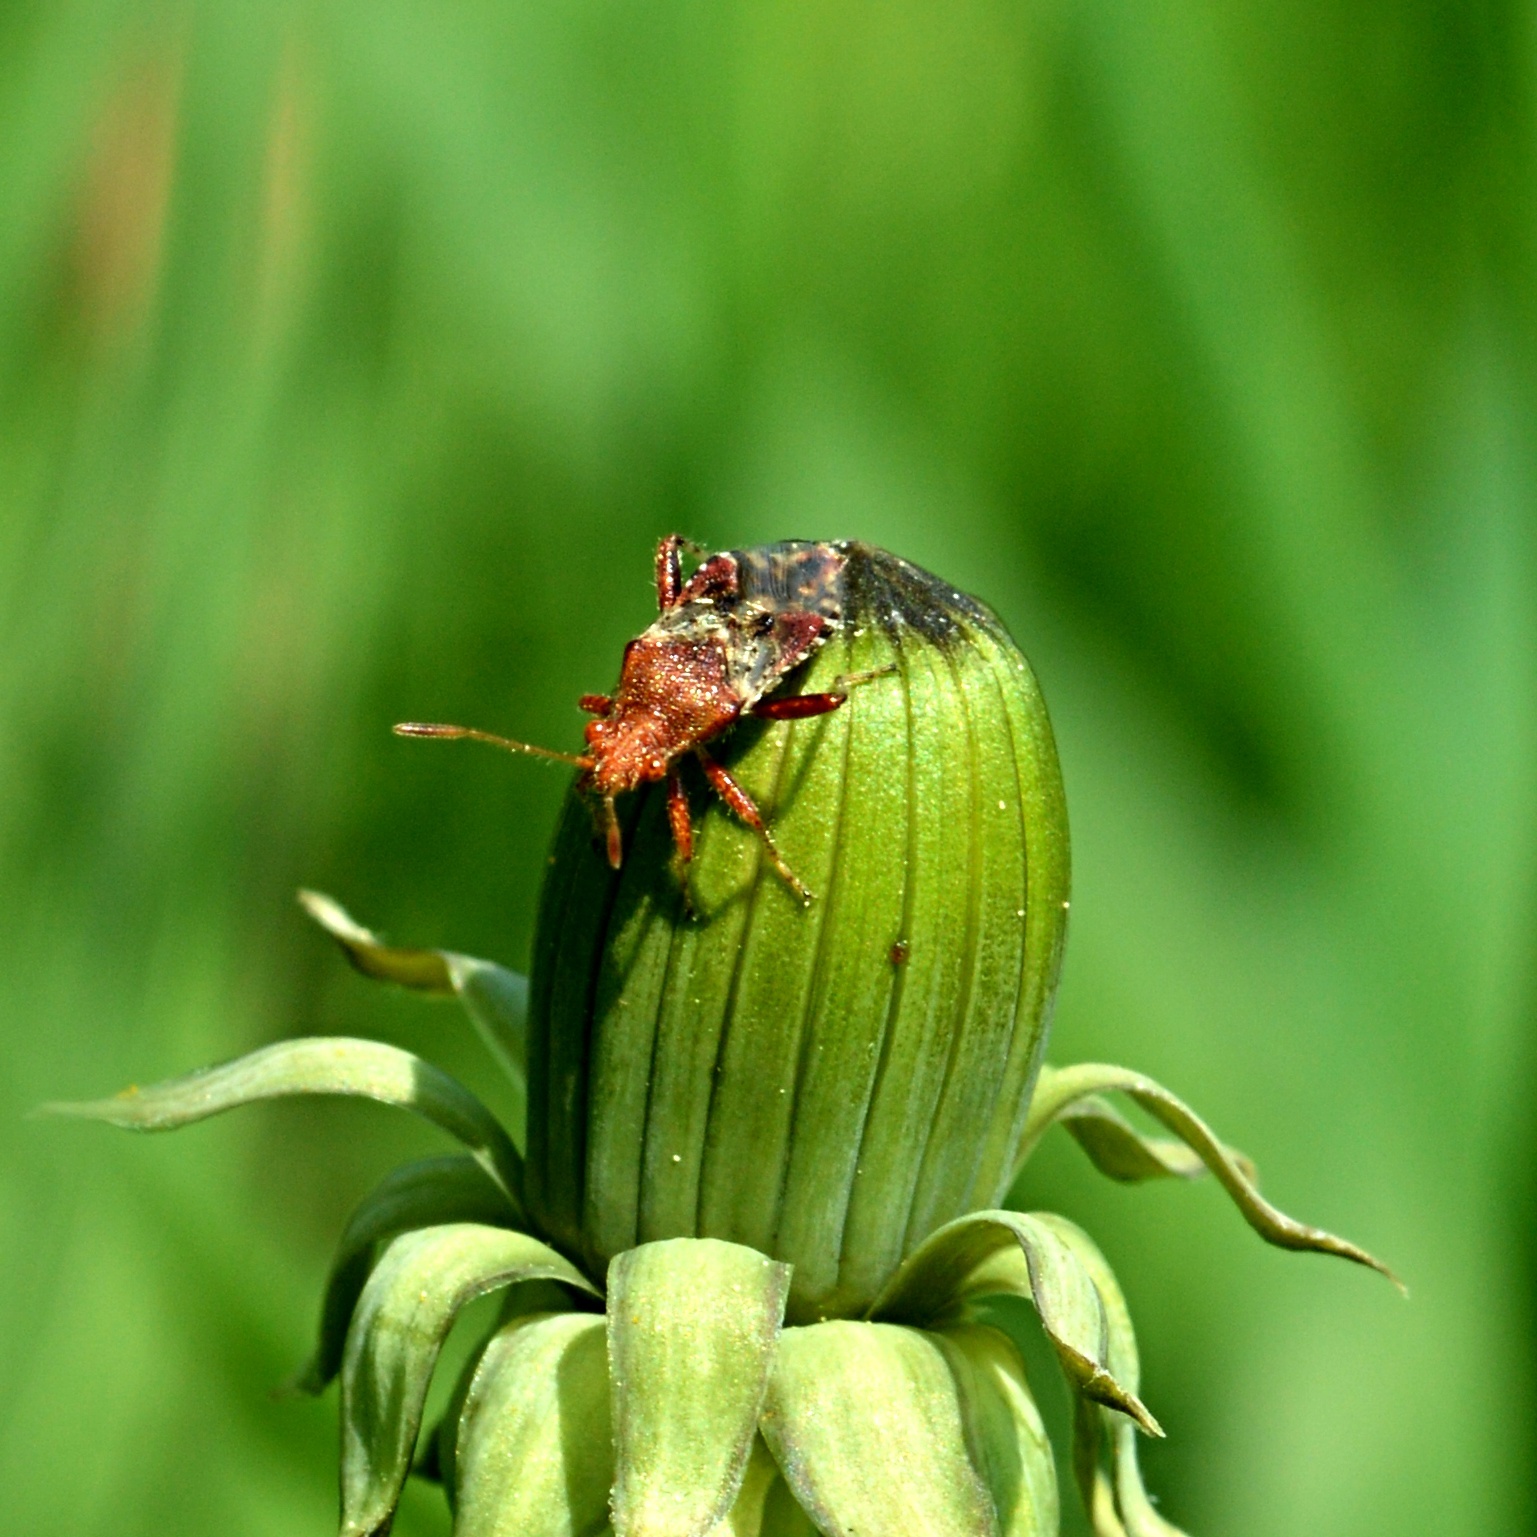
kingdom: Animalia
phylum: Arthropoda
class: Insecta
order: Hemiptera
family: Rhopalidae
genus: Rhopalus
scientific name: Rhopalus subrufus
